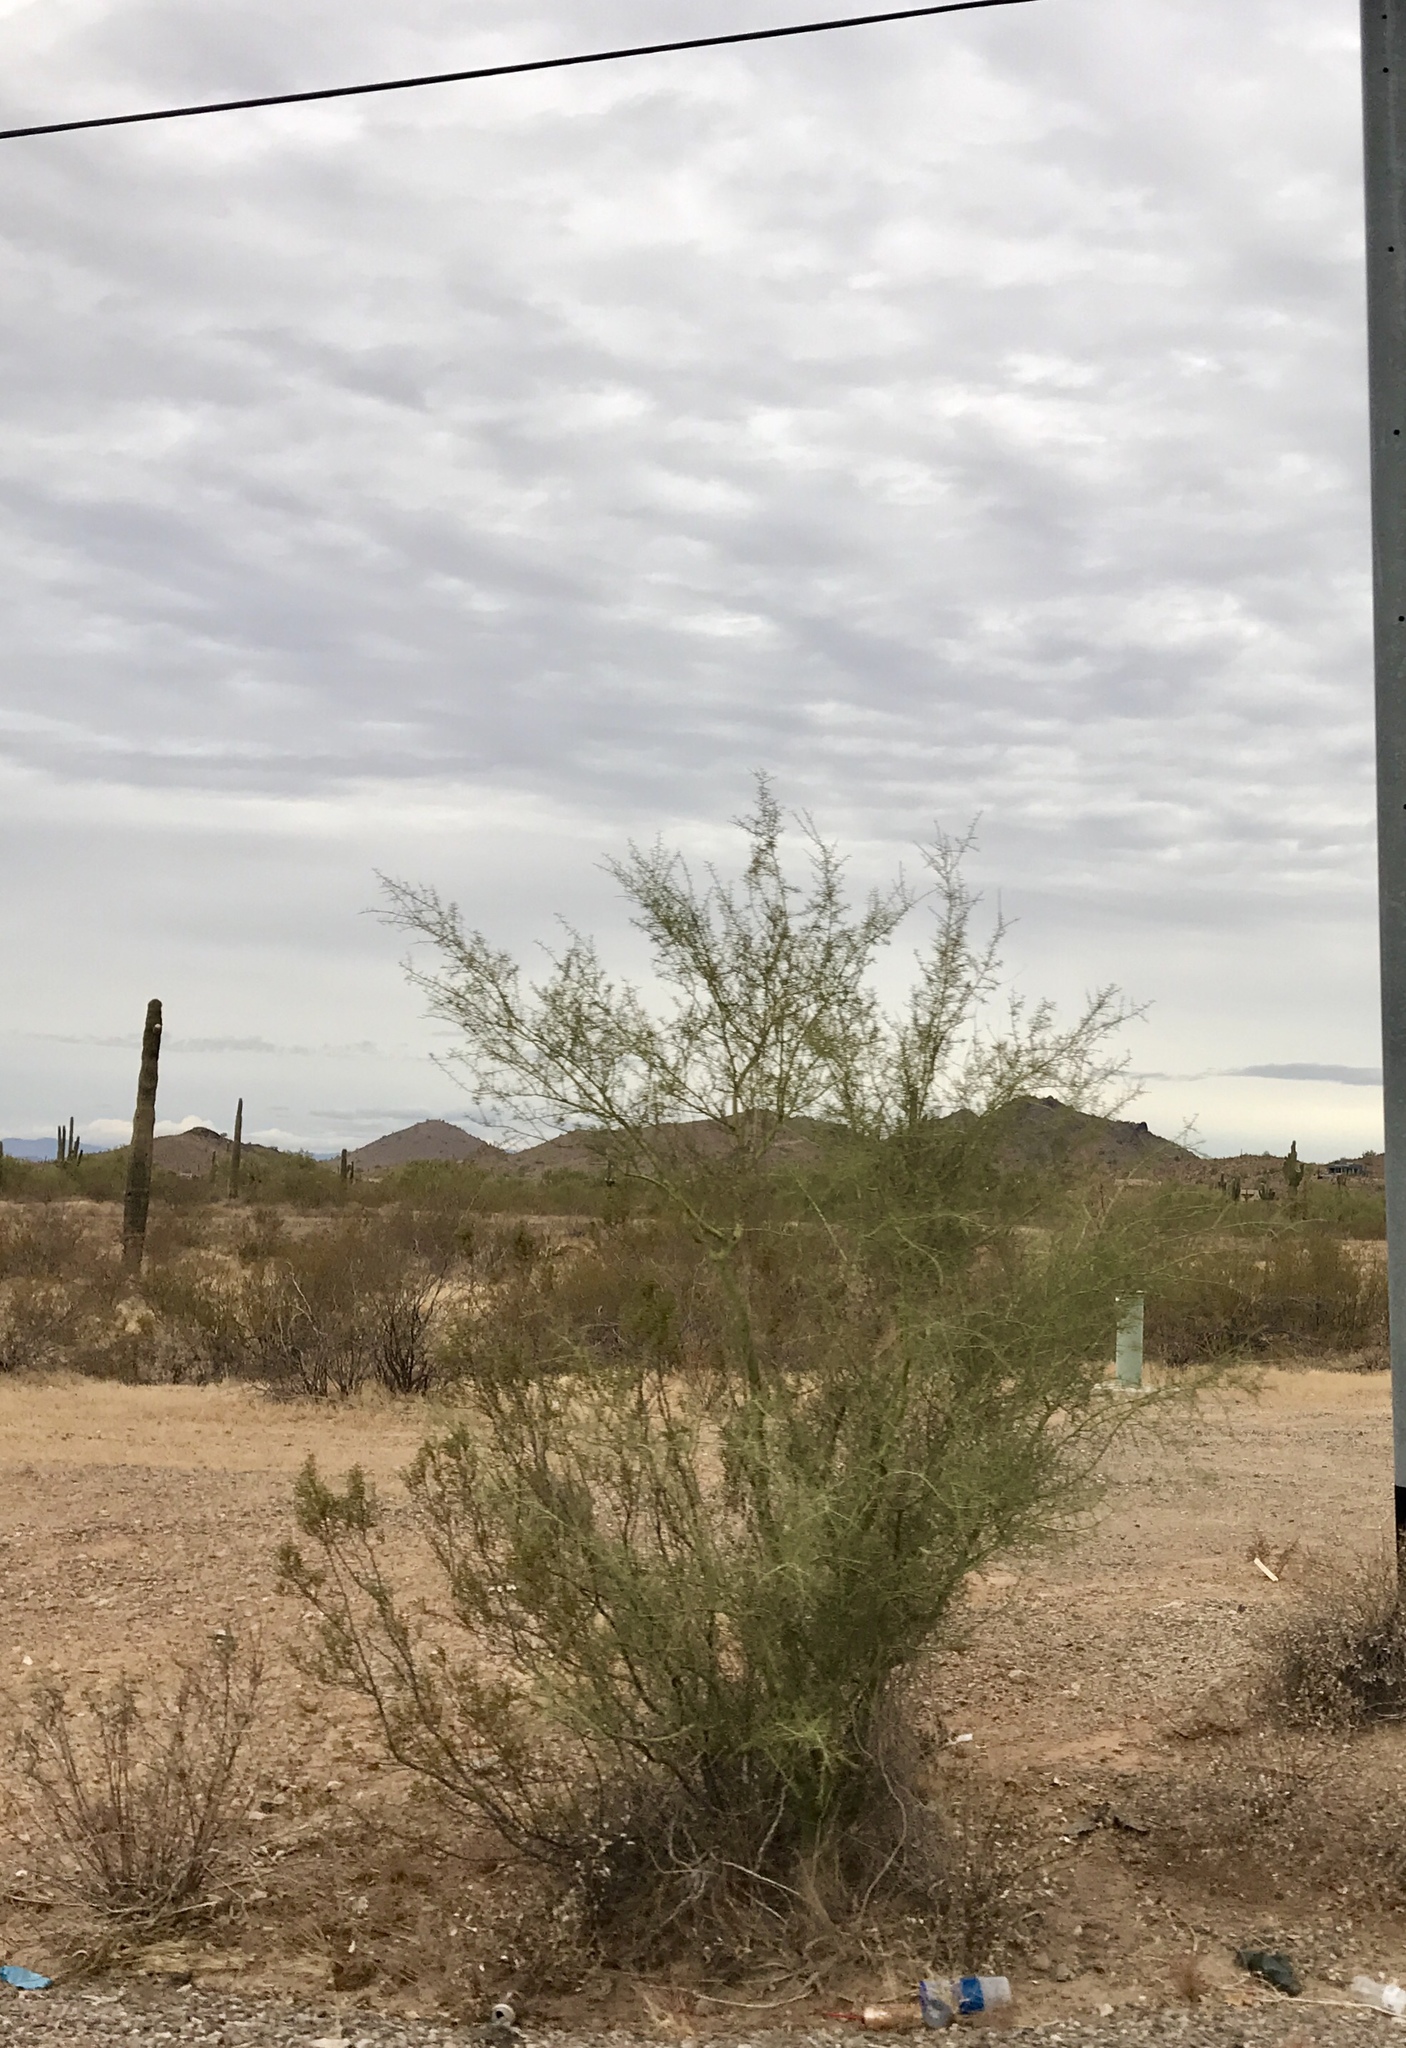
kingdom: Plantae
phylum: Tracheophyta
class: Magnoliopsida
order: Fabales
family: Fabaceae
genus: Parkinsonia
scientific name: Parkinsonia microphylla
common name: Yellow paloverde
